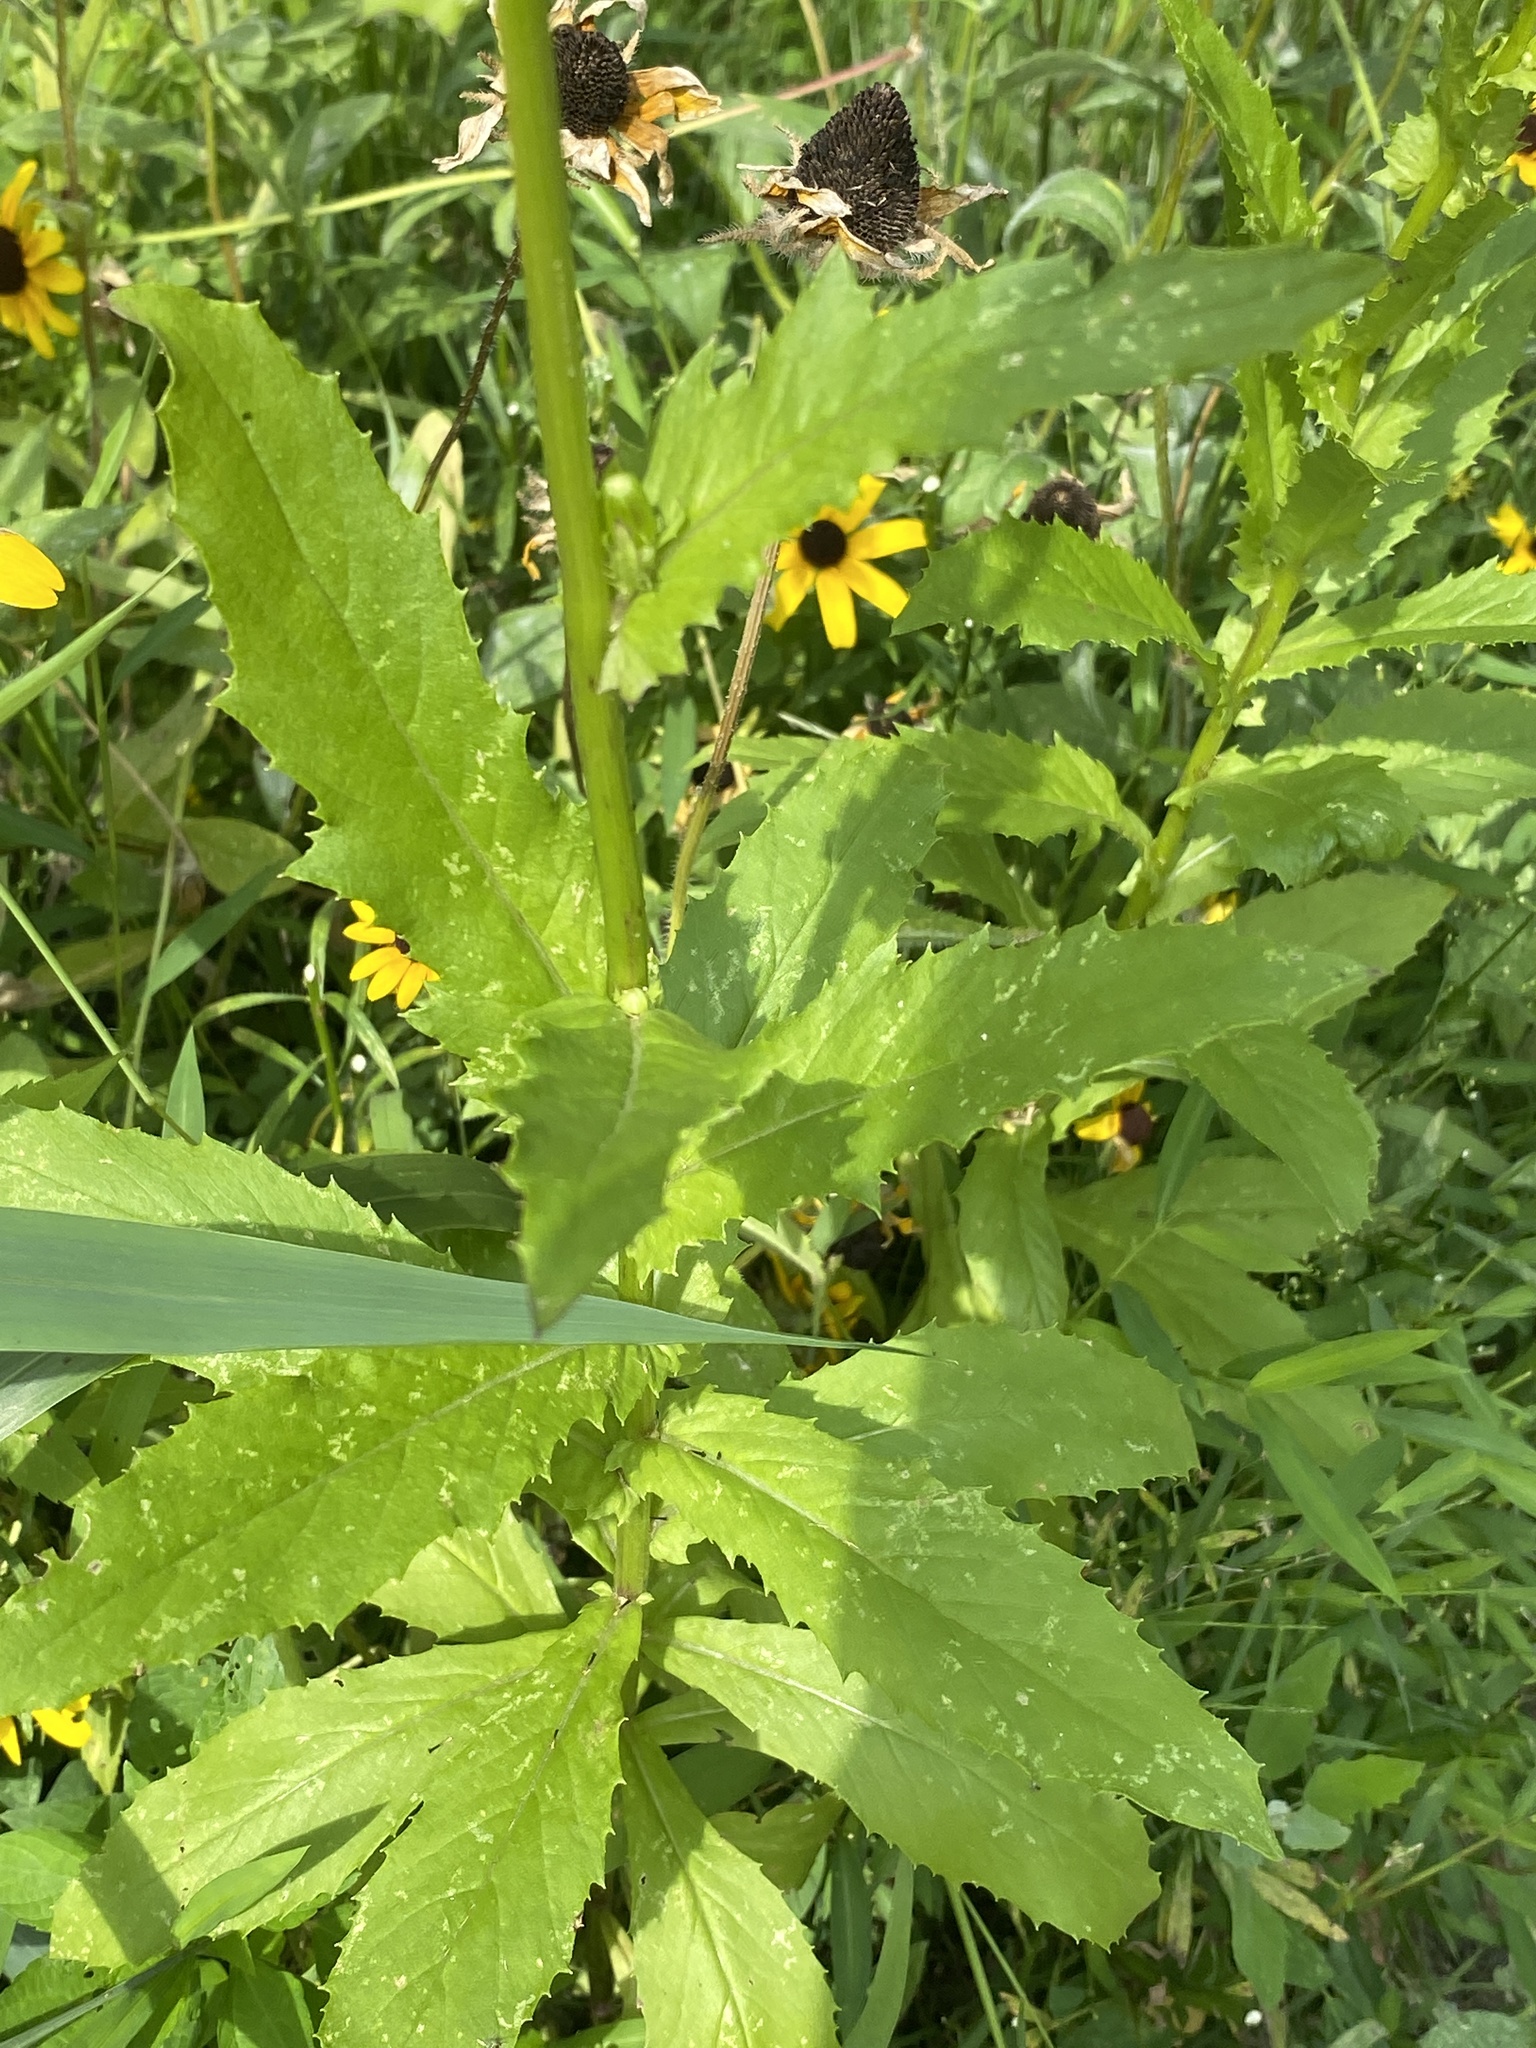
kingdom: Plantae
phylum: Tracheophyta
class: Magnoliopsida
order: Asterales
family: Asteraceae
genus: Erechtites
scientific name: Erechtites hieraciifolius
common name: American burnweed
